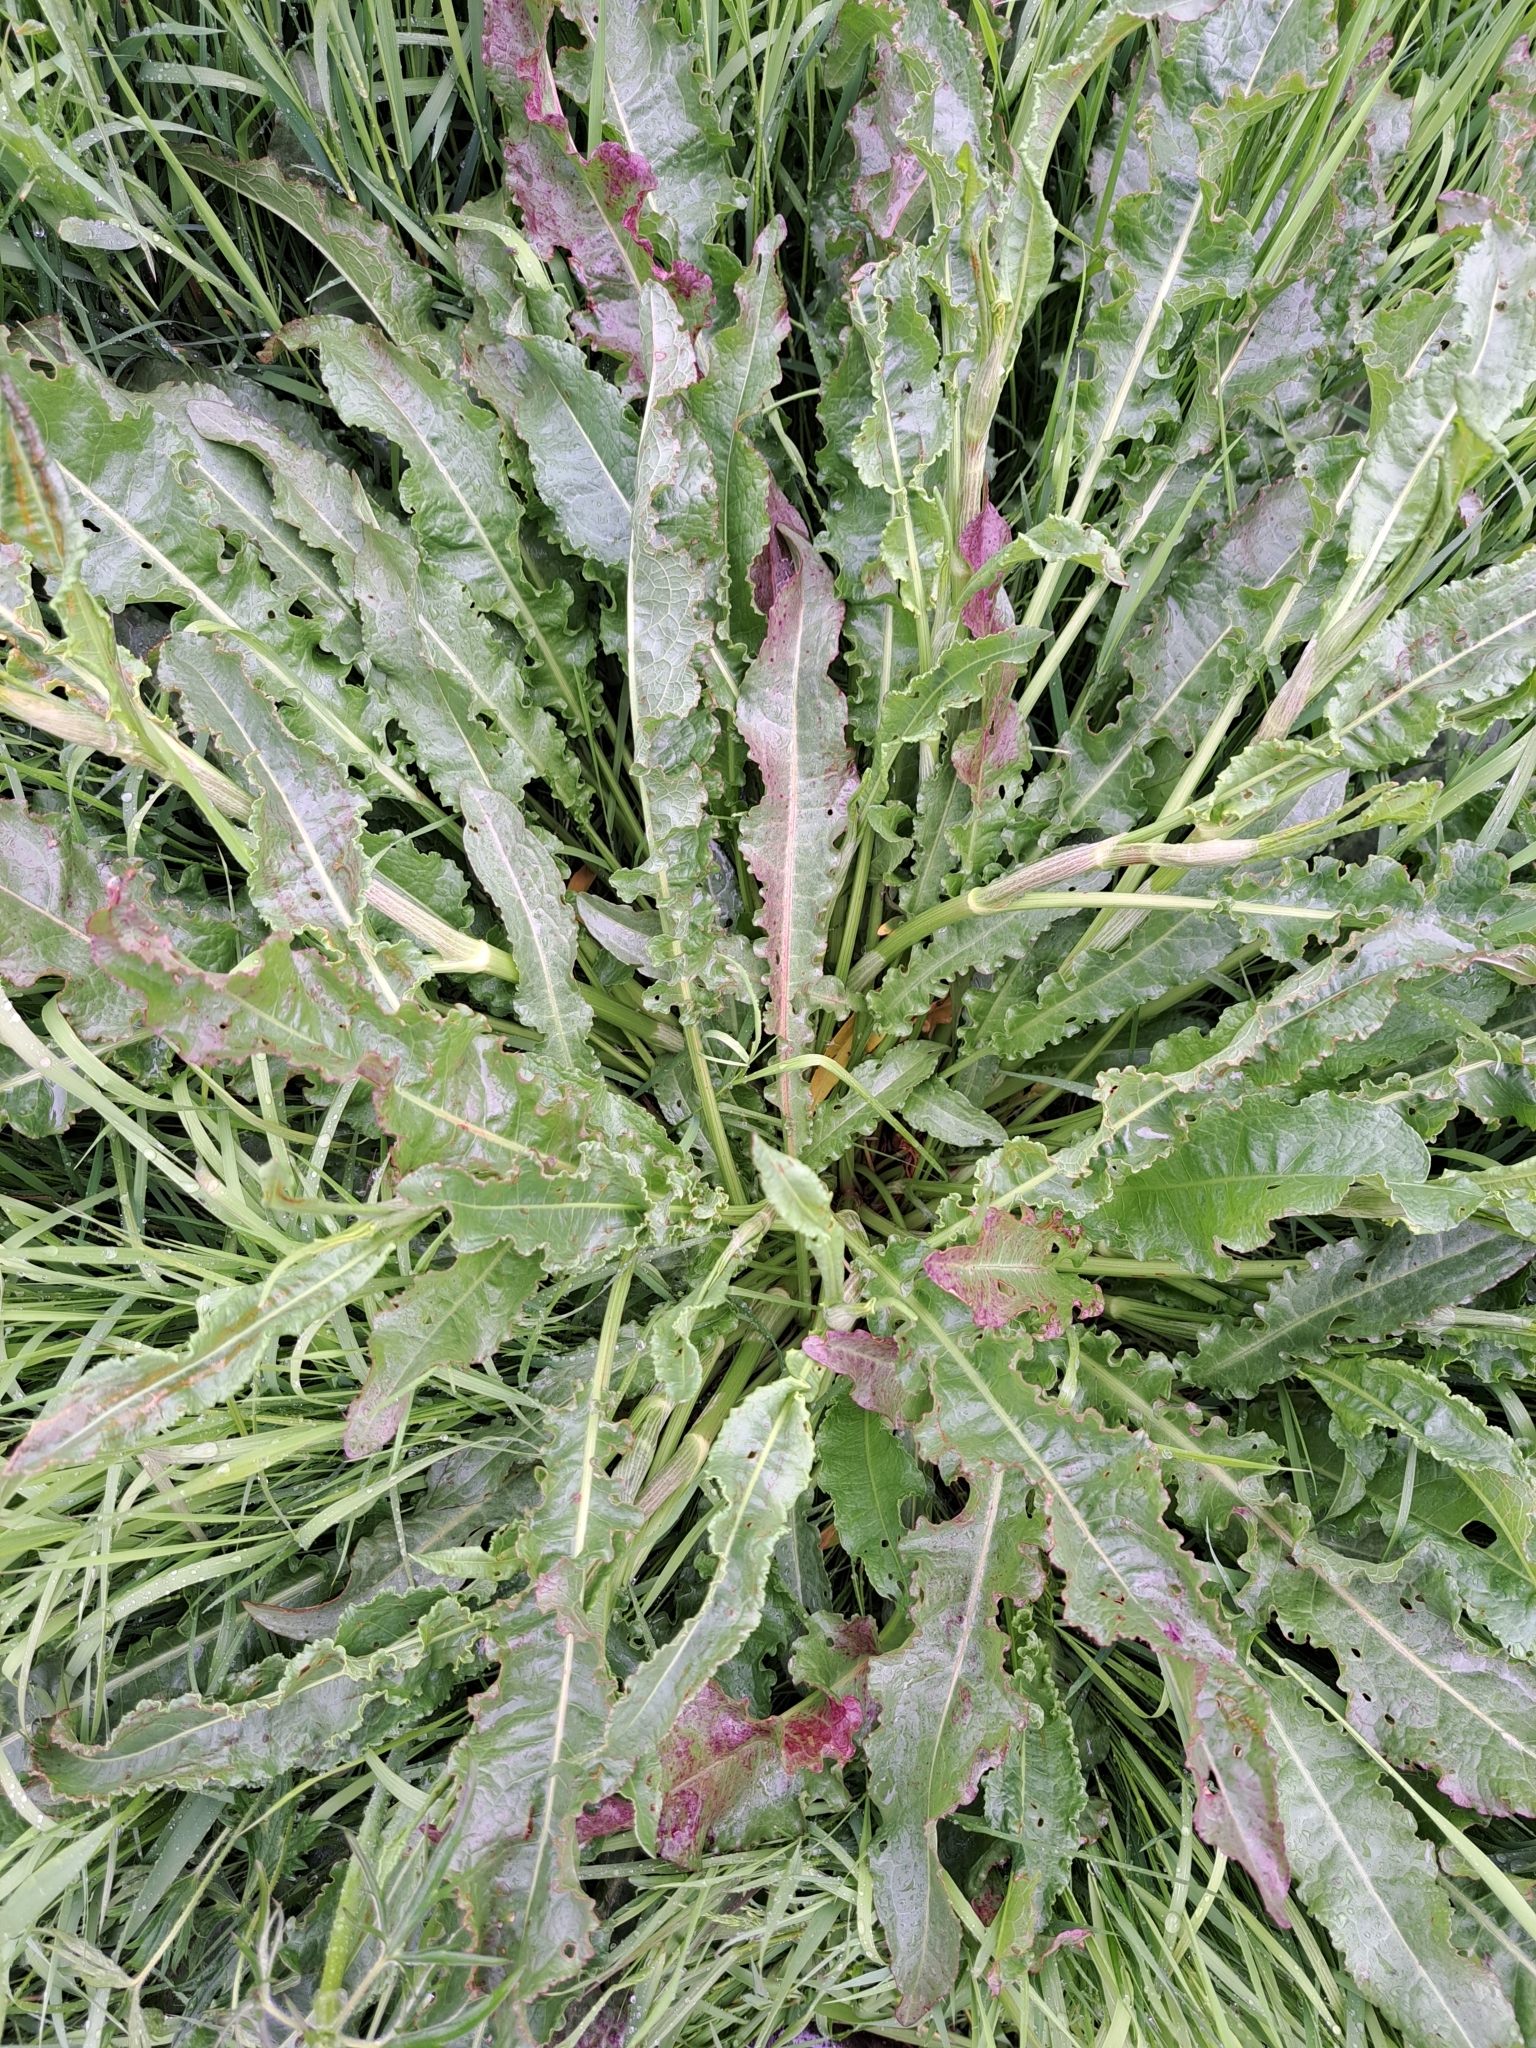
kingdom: Plantae
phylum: Tracheophyta
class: Magnoliopsida
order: Caryophyllales
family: Polygonaceae
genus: Rumex
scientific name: Rumex crispus
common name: Curled dock
